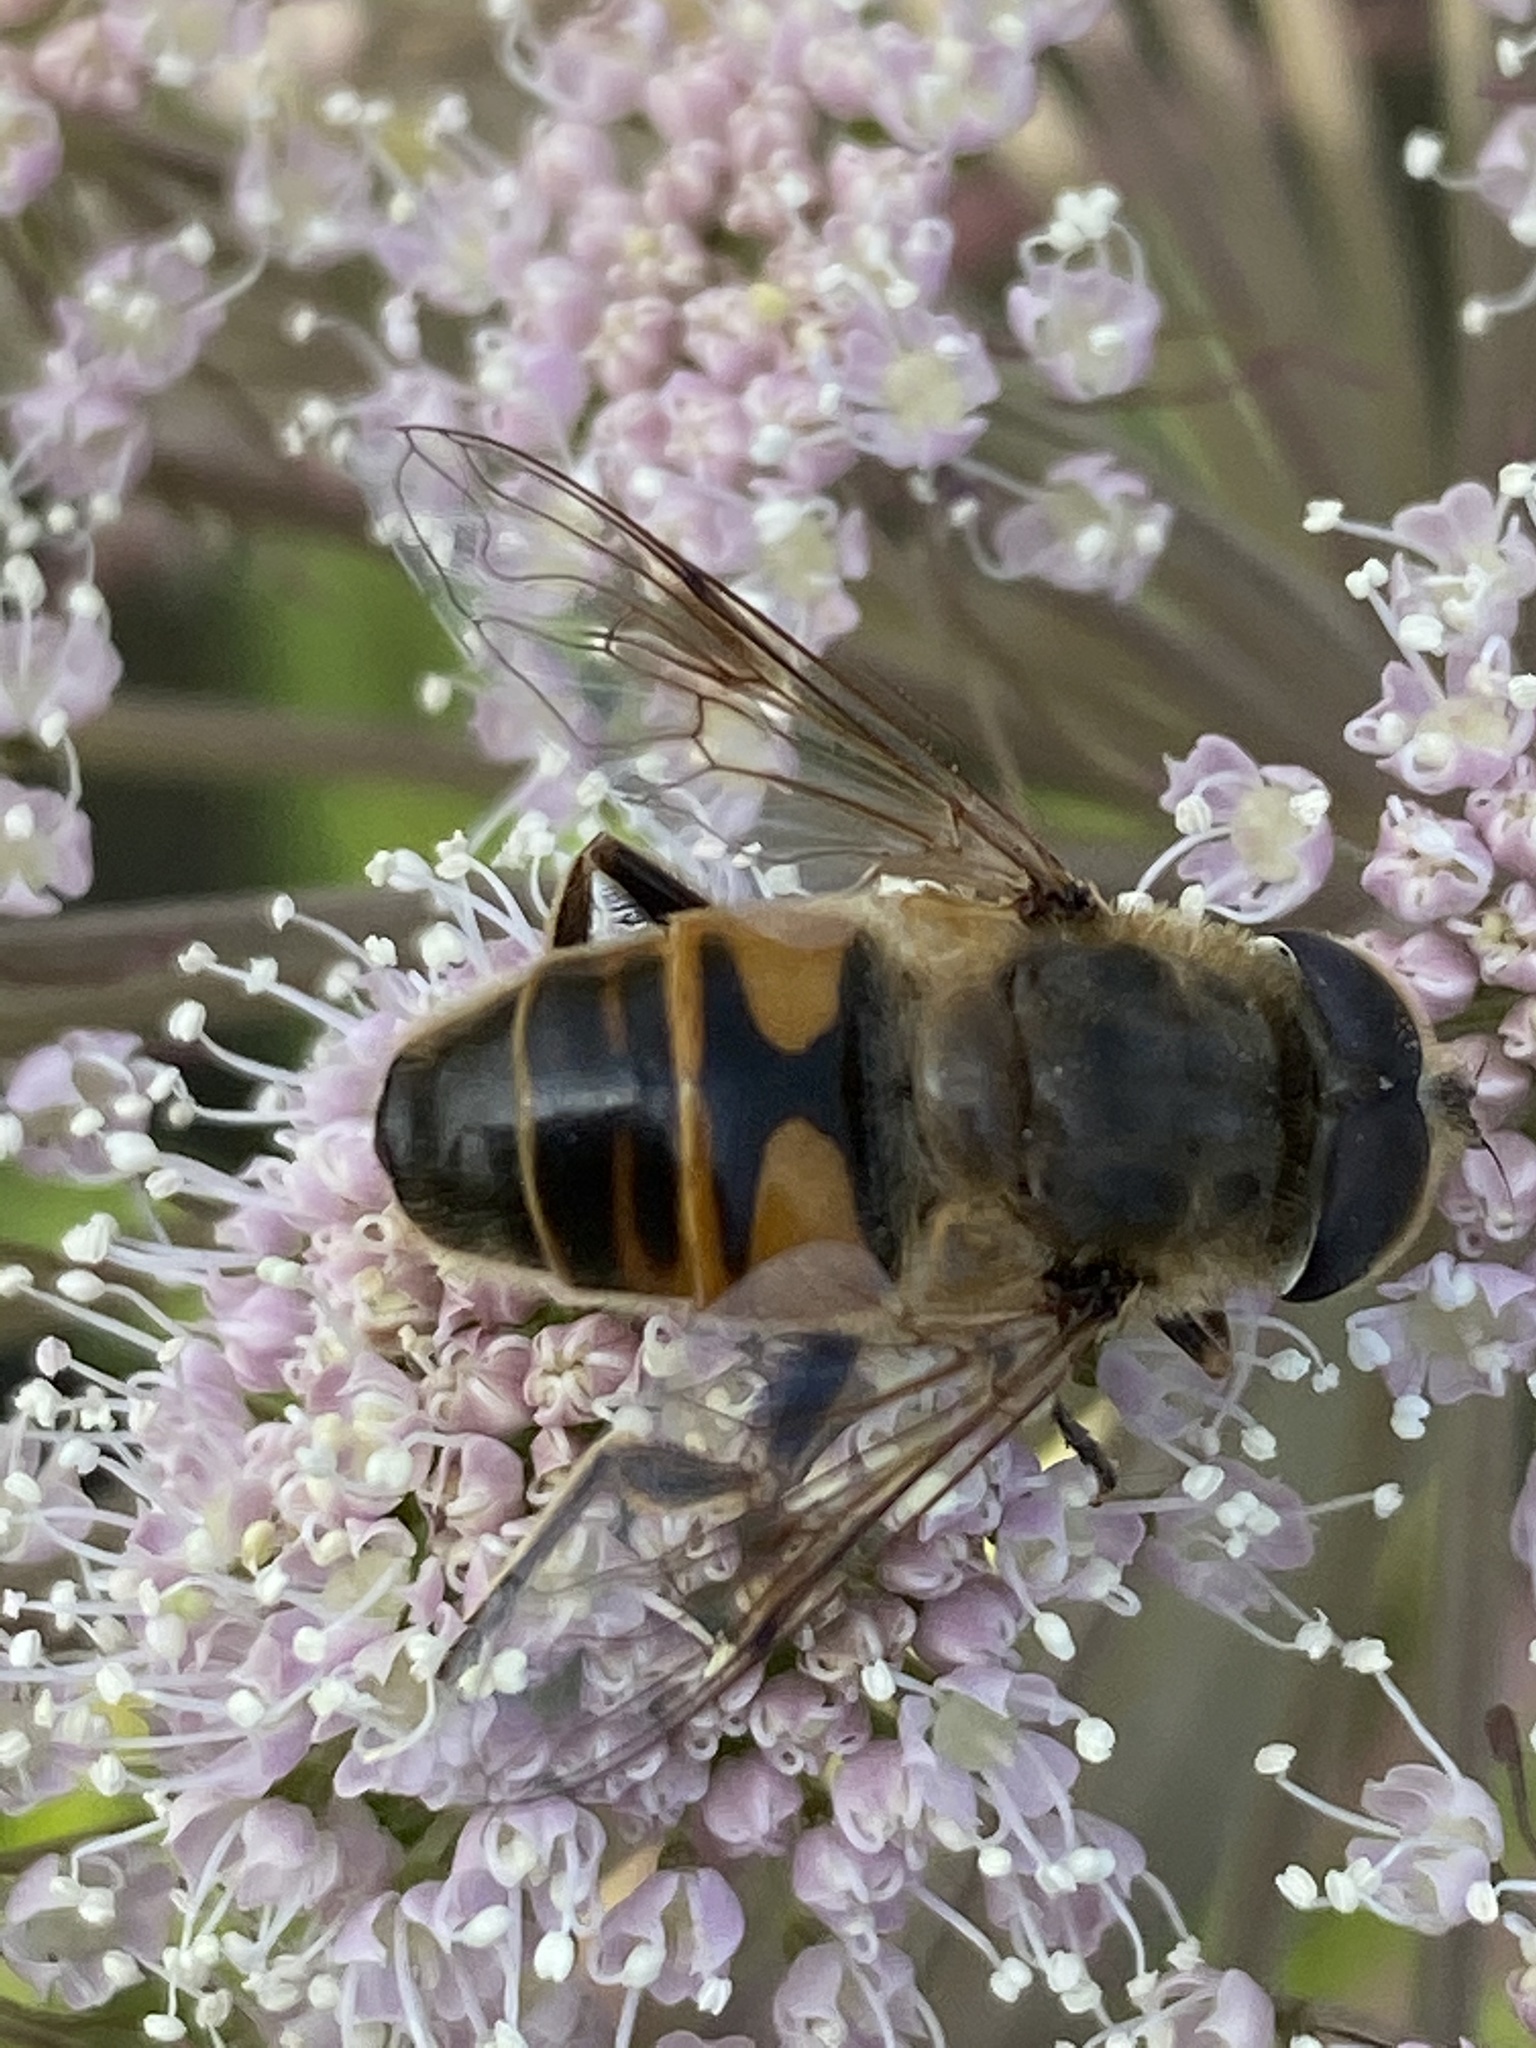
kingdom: Animalia
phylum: Arthropoda
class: Insecta
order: Diptera
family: Syrphidae
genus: Eristalis
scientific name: Eristalis tenax
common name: Drone fly
